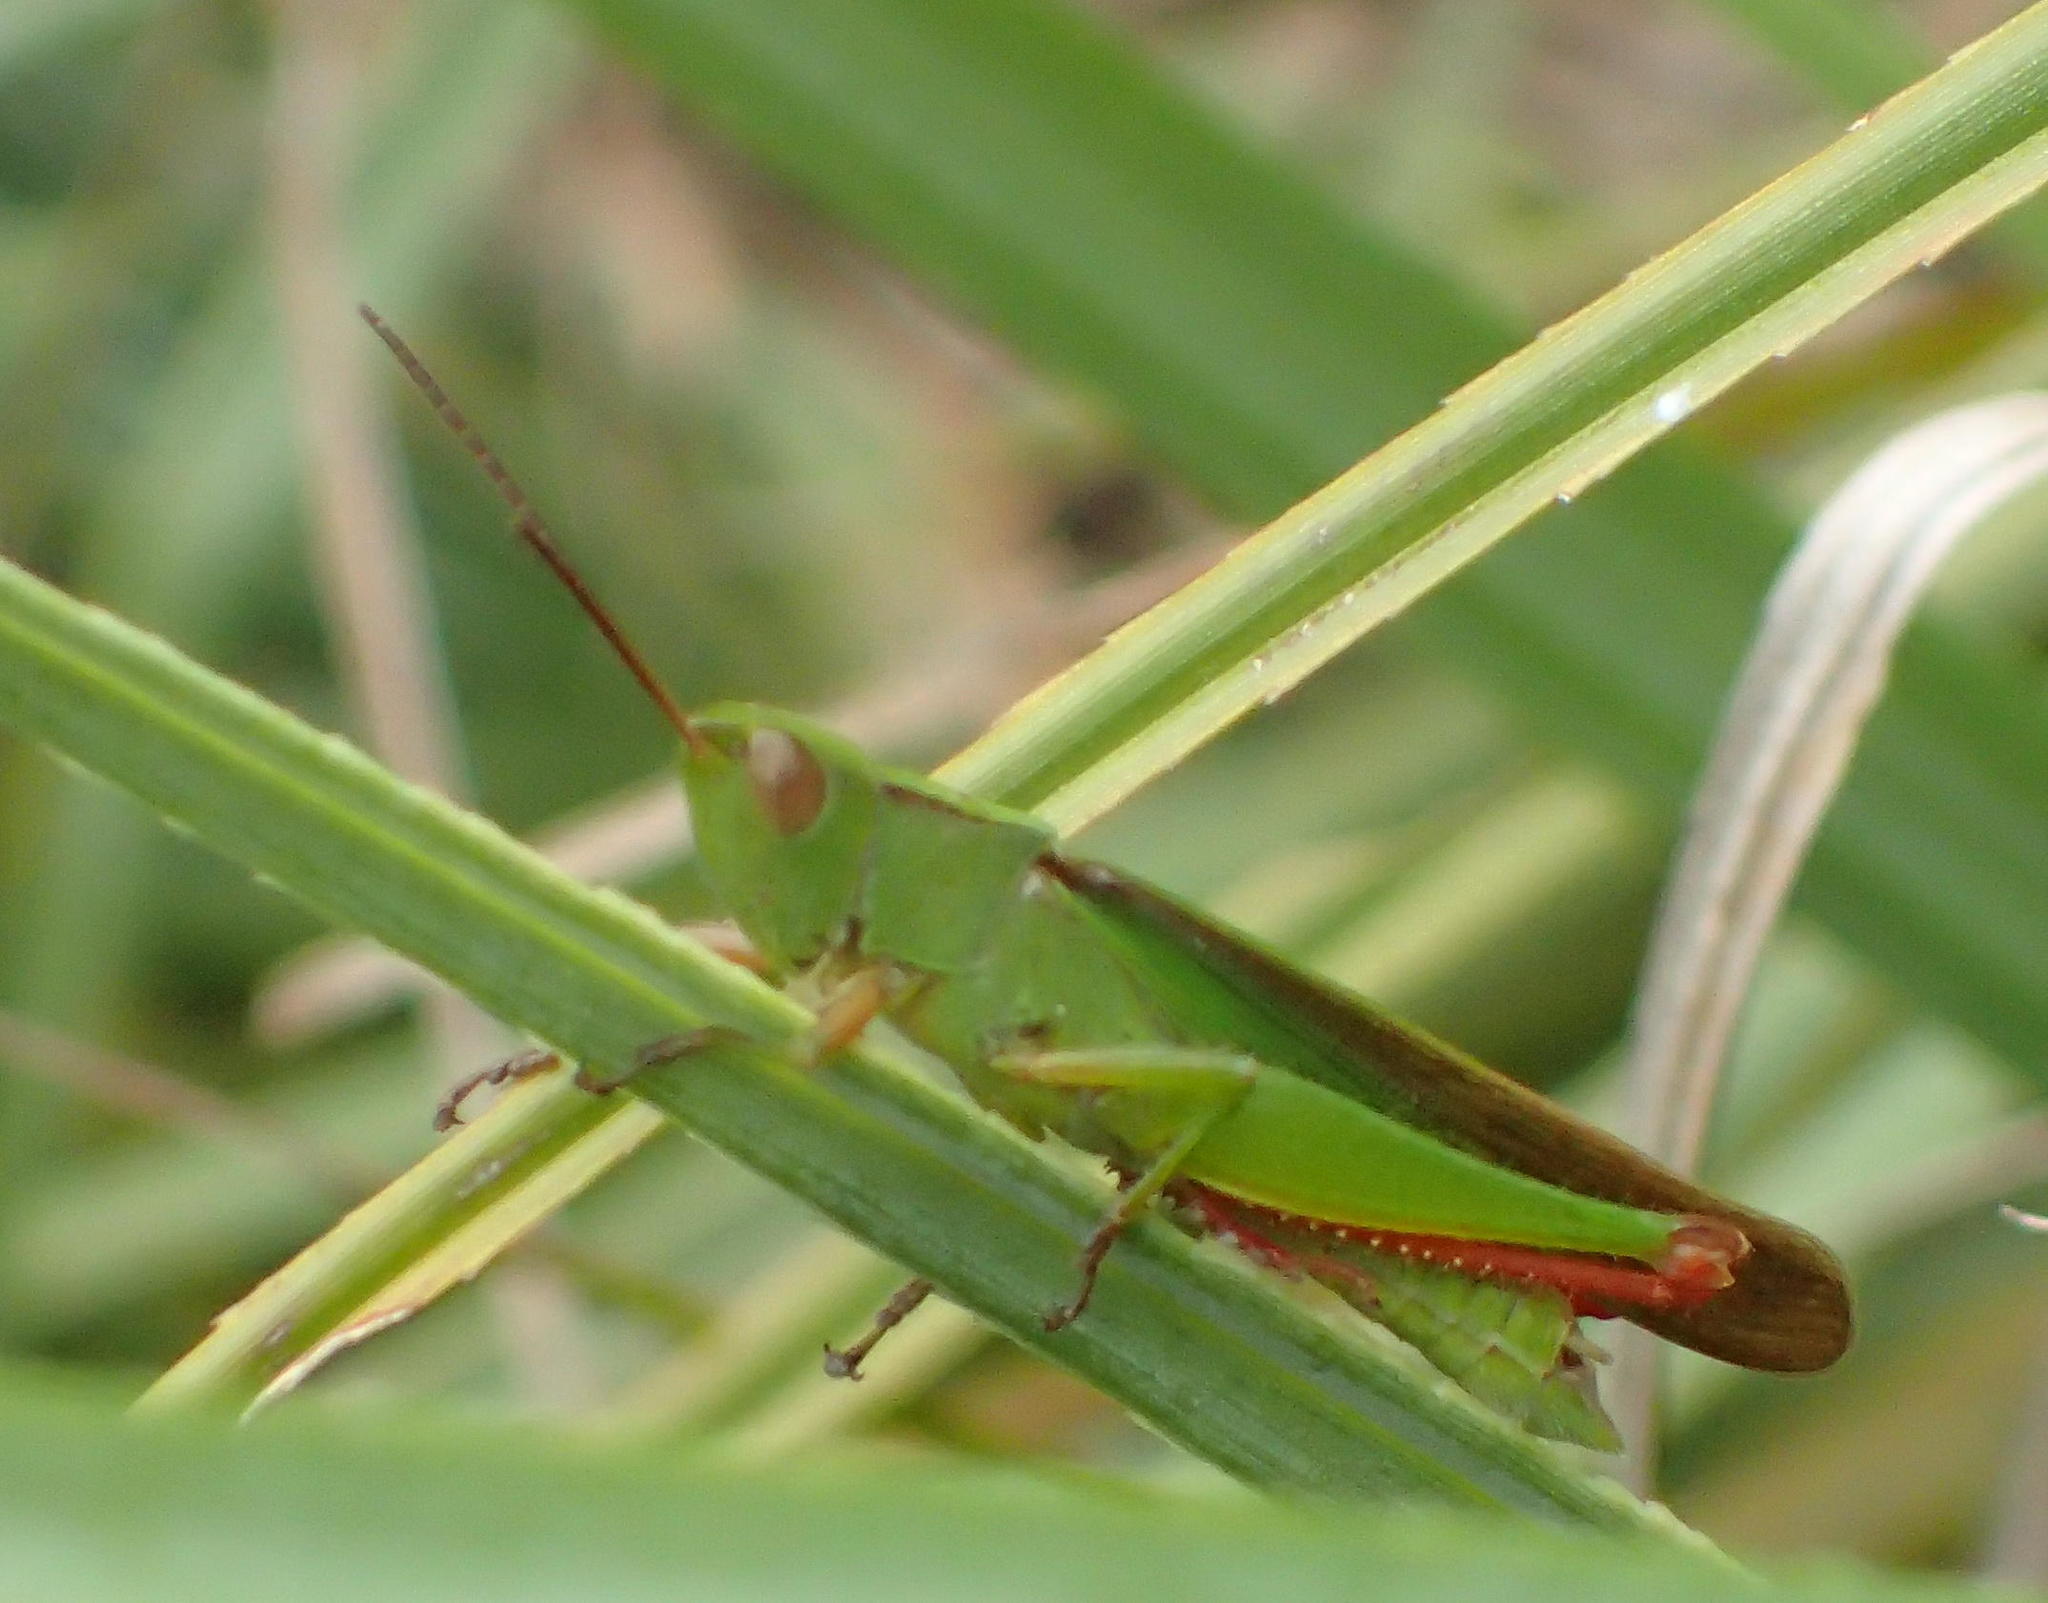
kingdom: Animalia
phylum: Arthropoda
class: Insecta
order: Orthoptera
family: Acrididae
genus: Paracinema
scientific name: Paracinema tricolor
